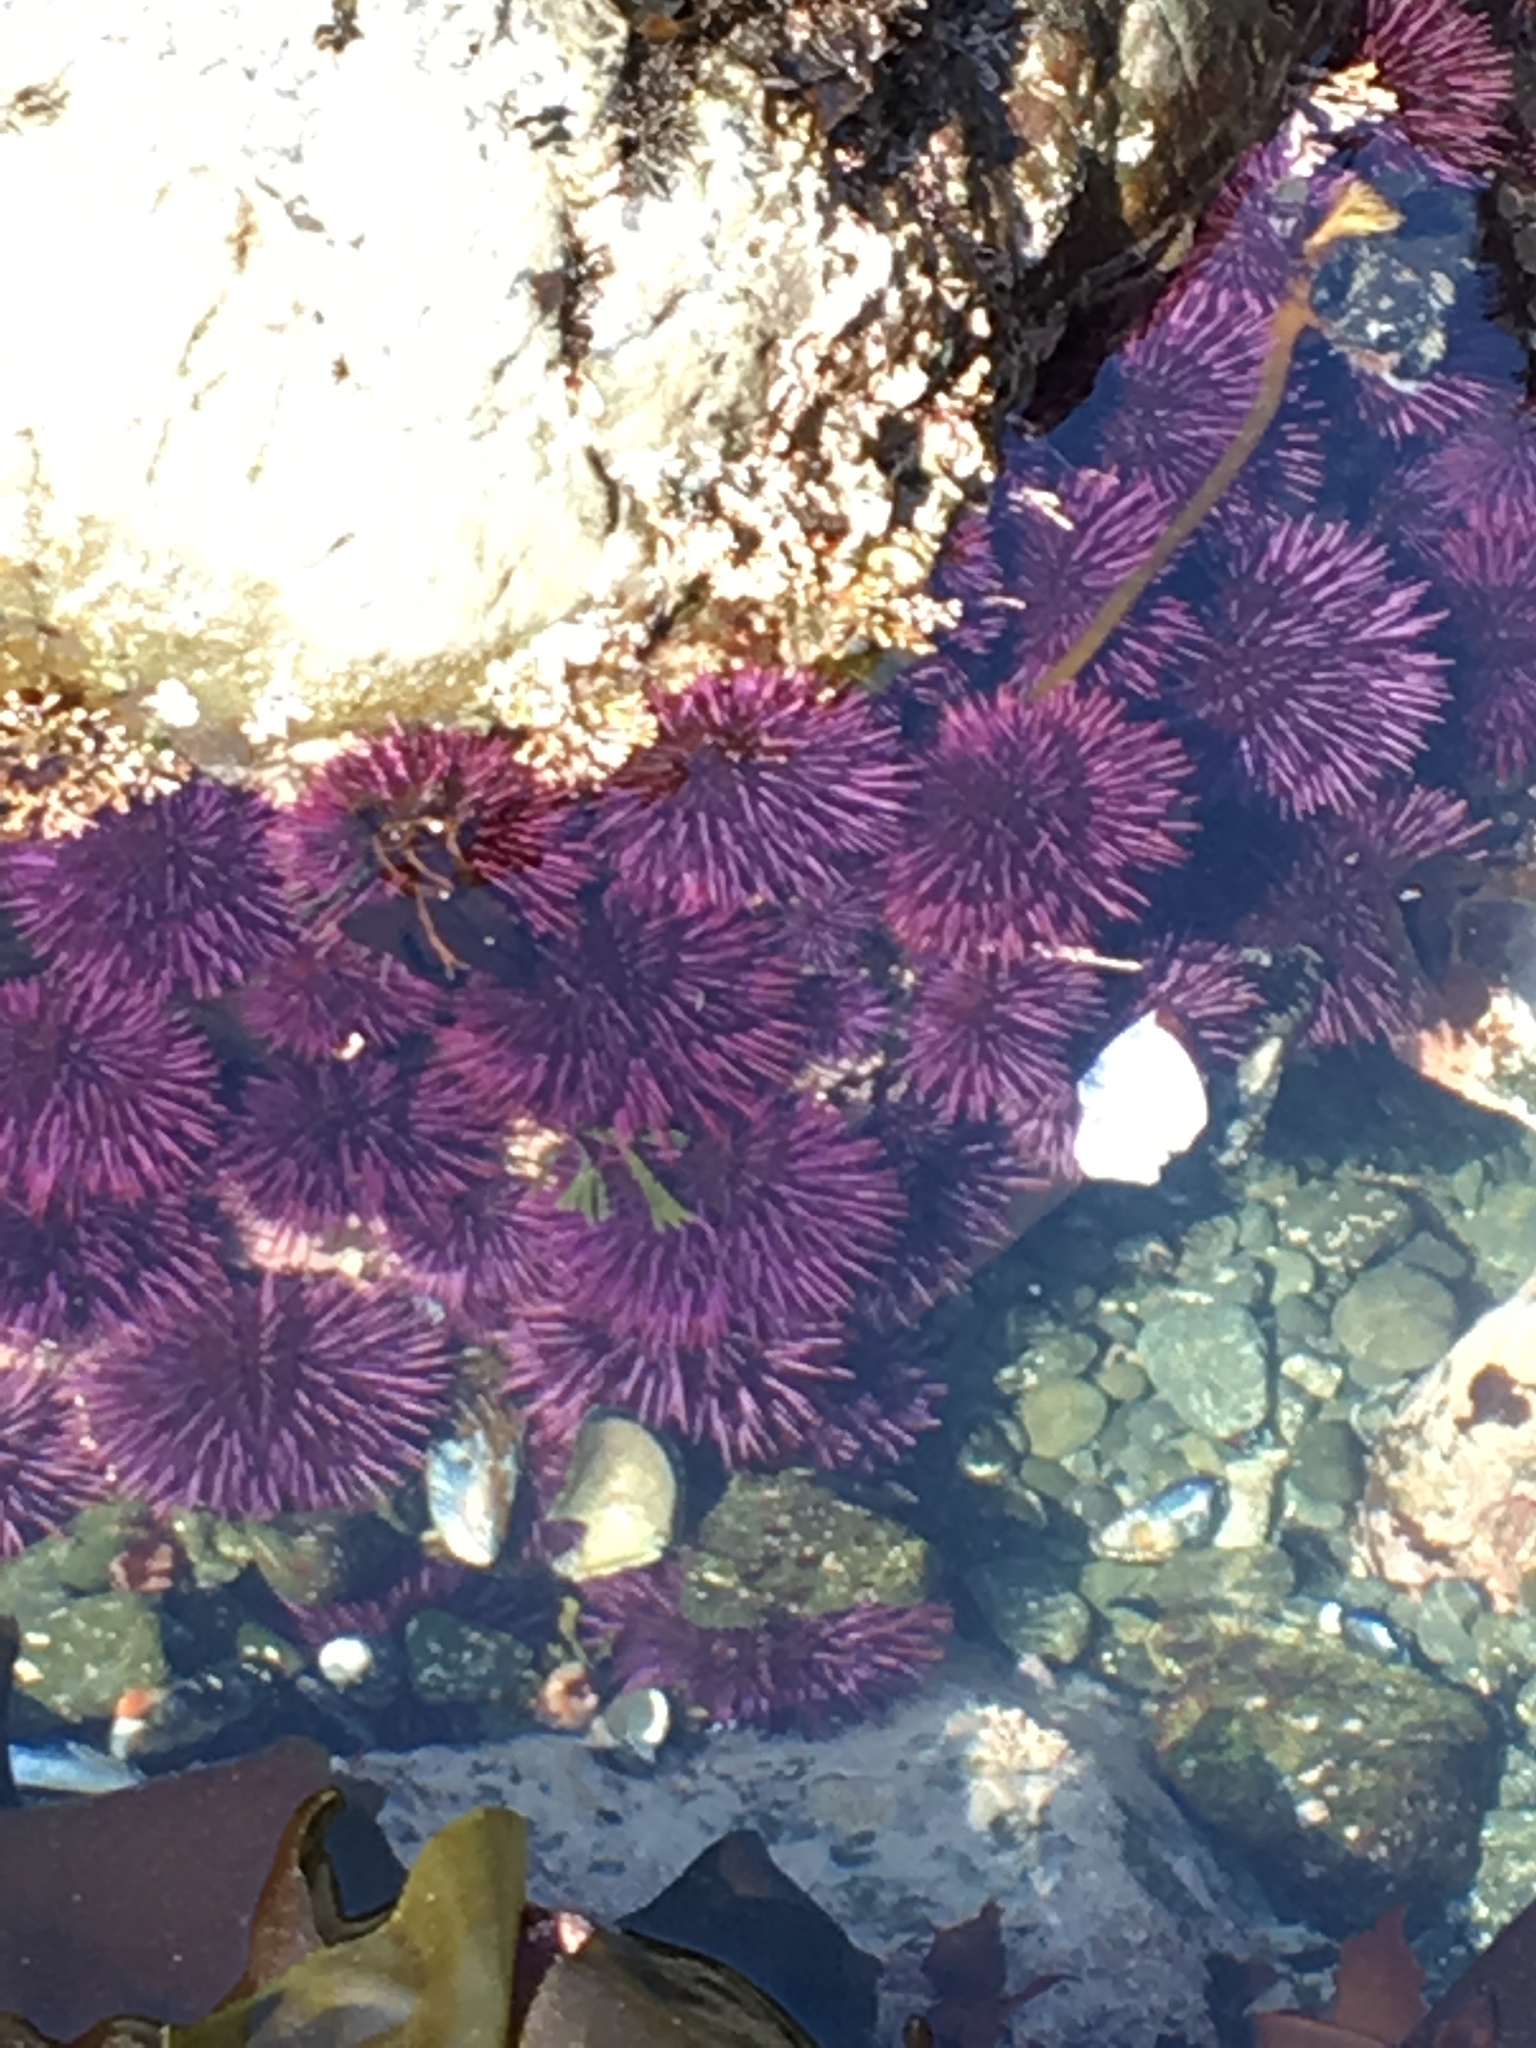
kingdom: Animalia
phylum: Echinodermata
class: Echinoidea
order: Camarodonta
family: Strongylocentrotidae
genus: Strongylocentrotus
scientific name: Strongylocentrotus purpuratus
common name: Purple sea urchin
